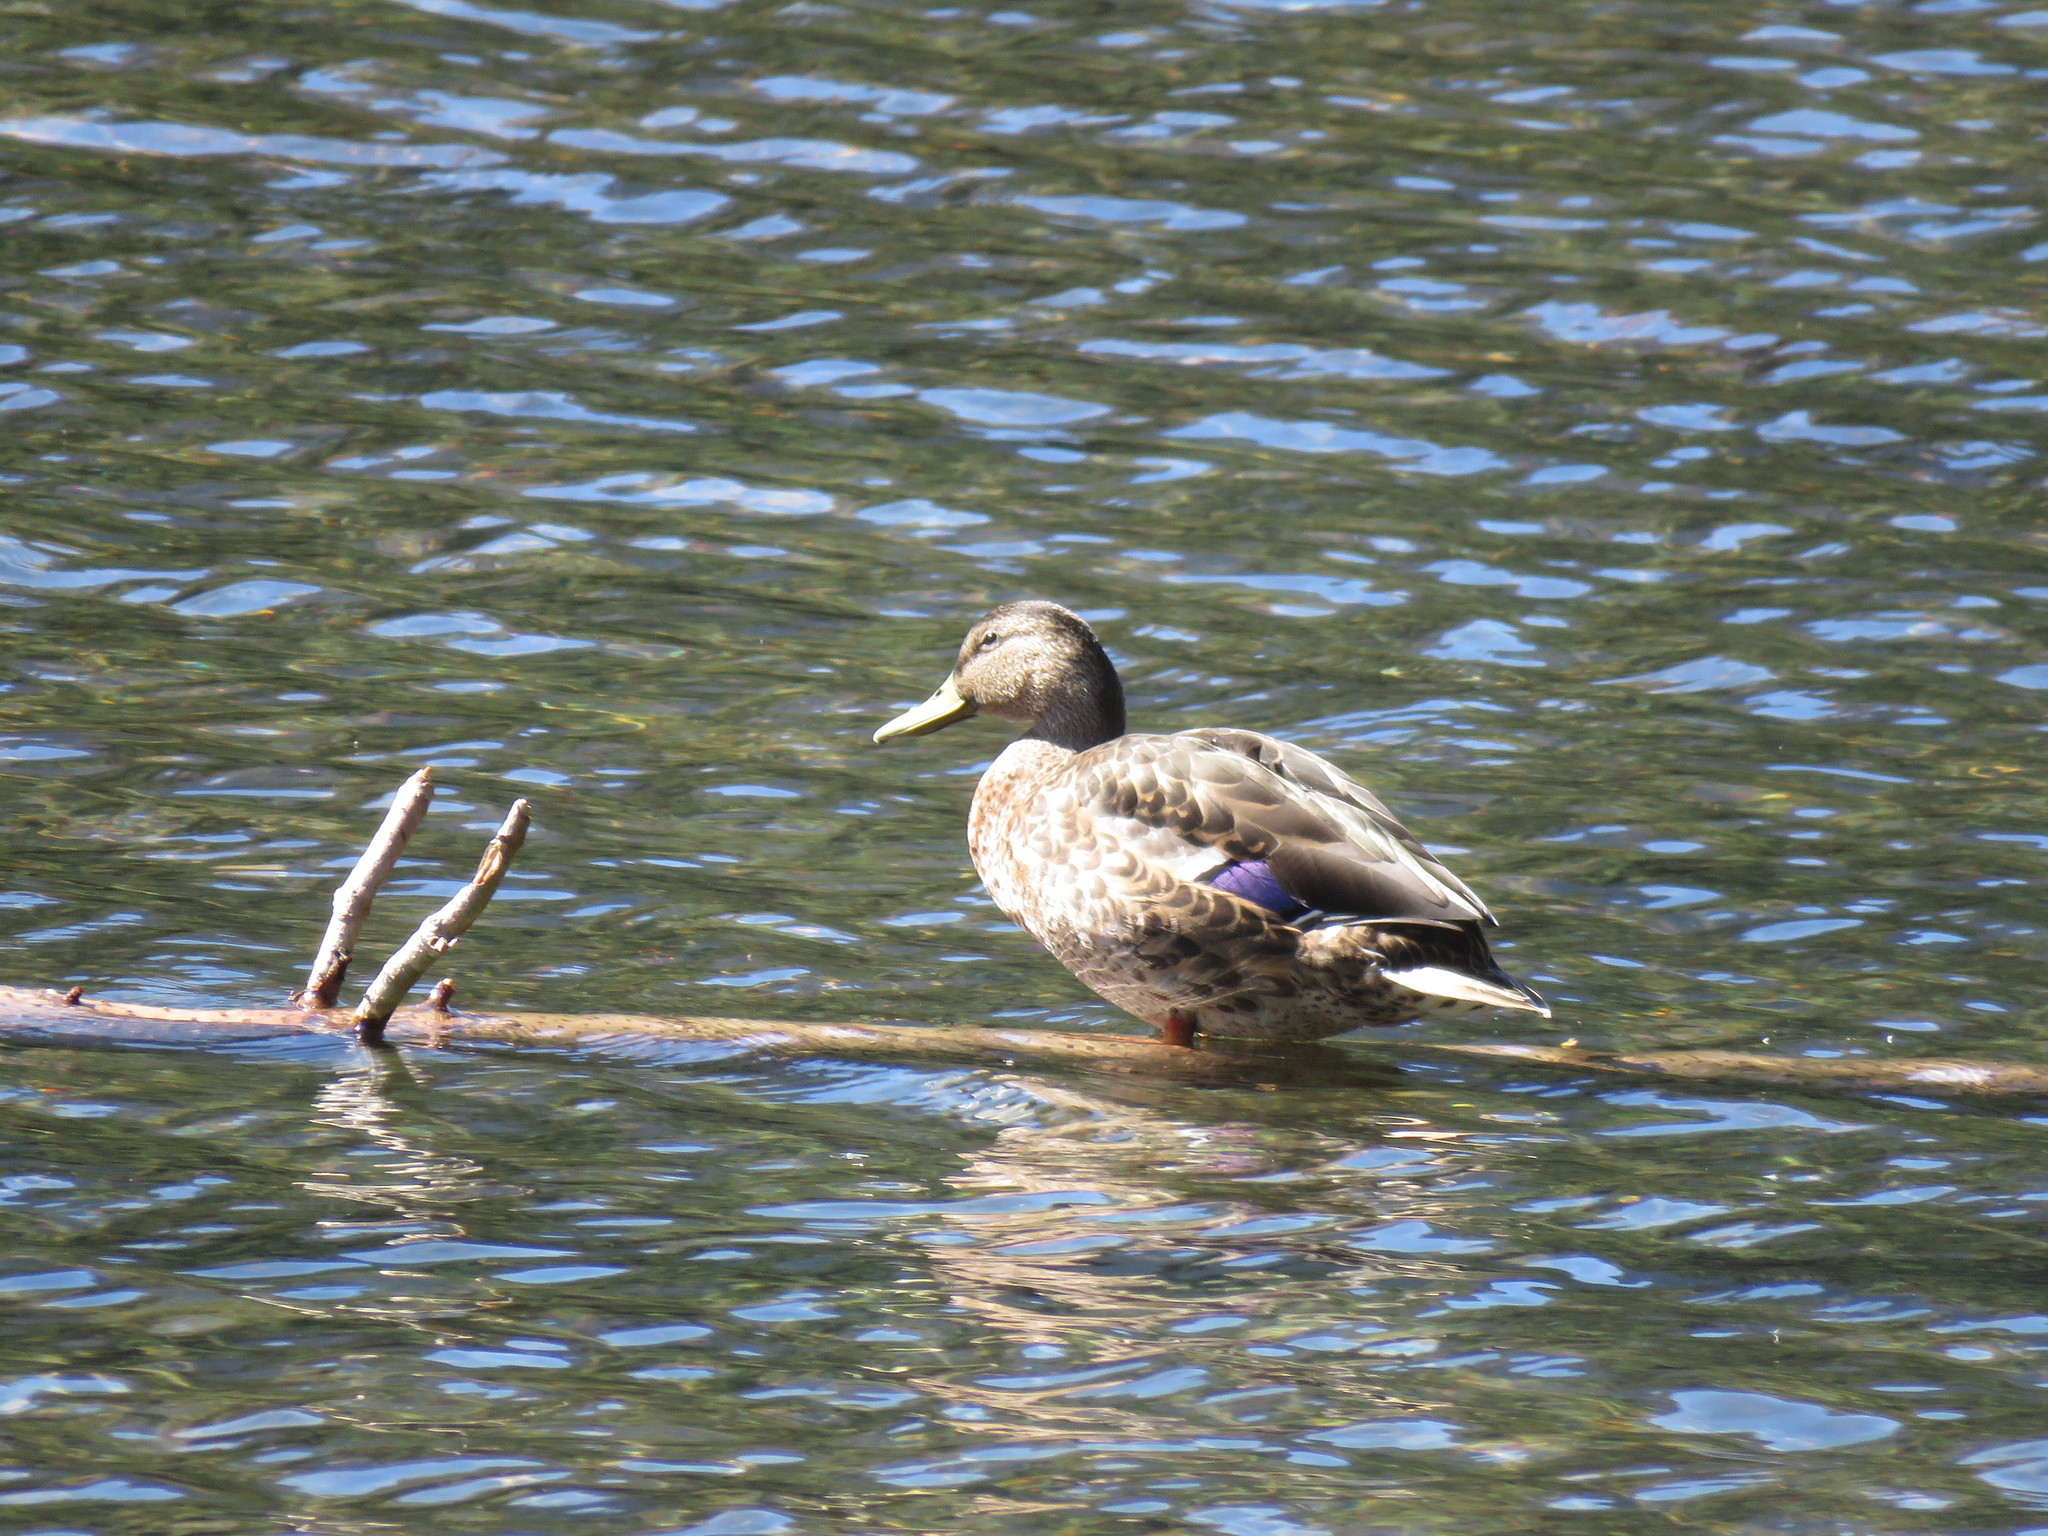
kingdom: Animalia
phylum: Chordata
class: Aves
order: Anseriformes
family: Anatidae
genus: Anas
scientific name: Anas platyrhynchos
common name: Mallard
